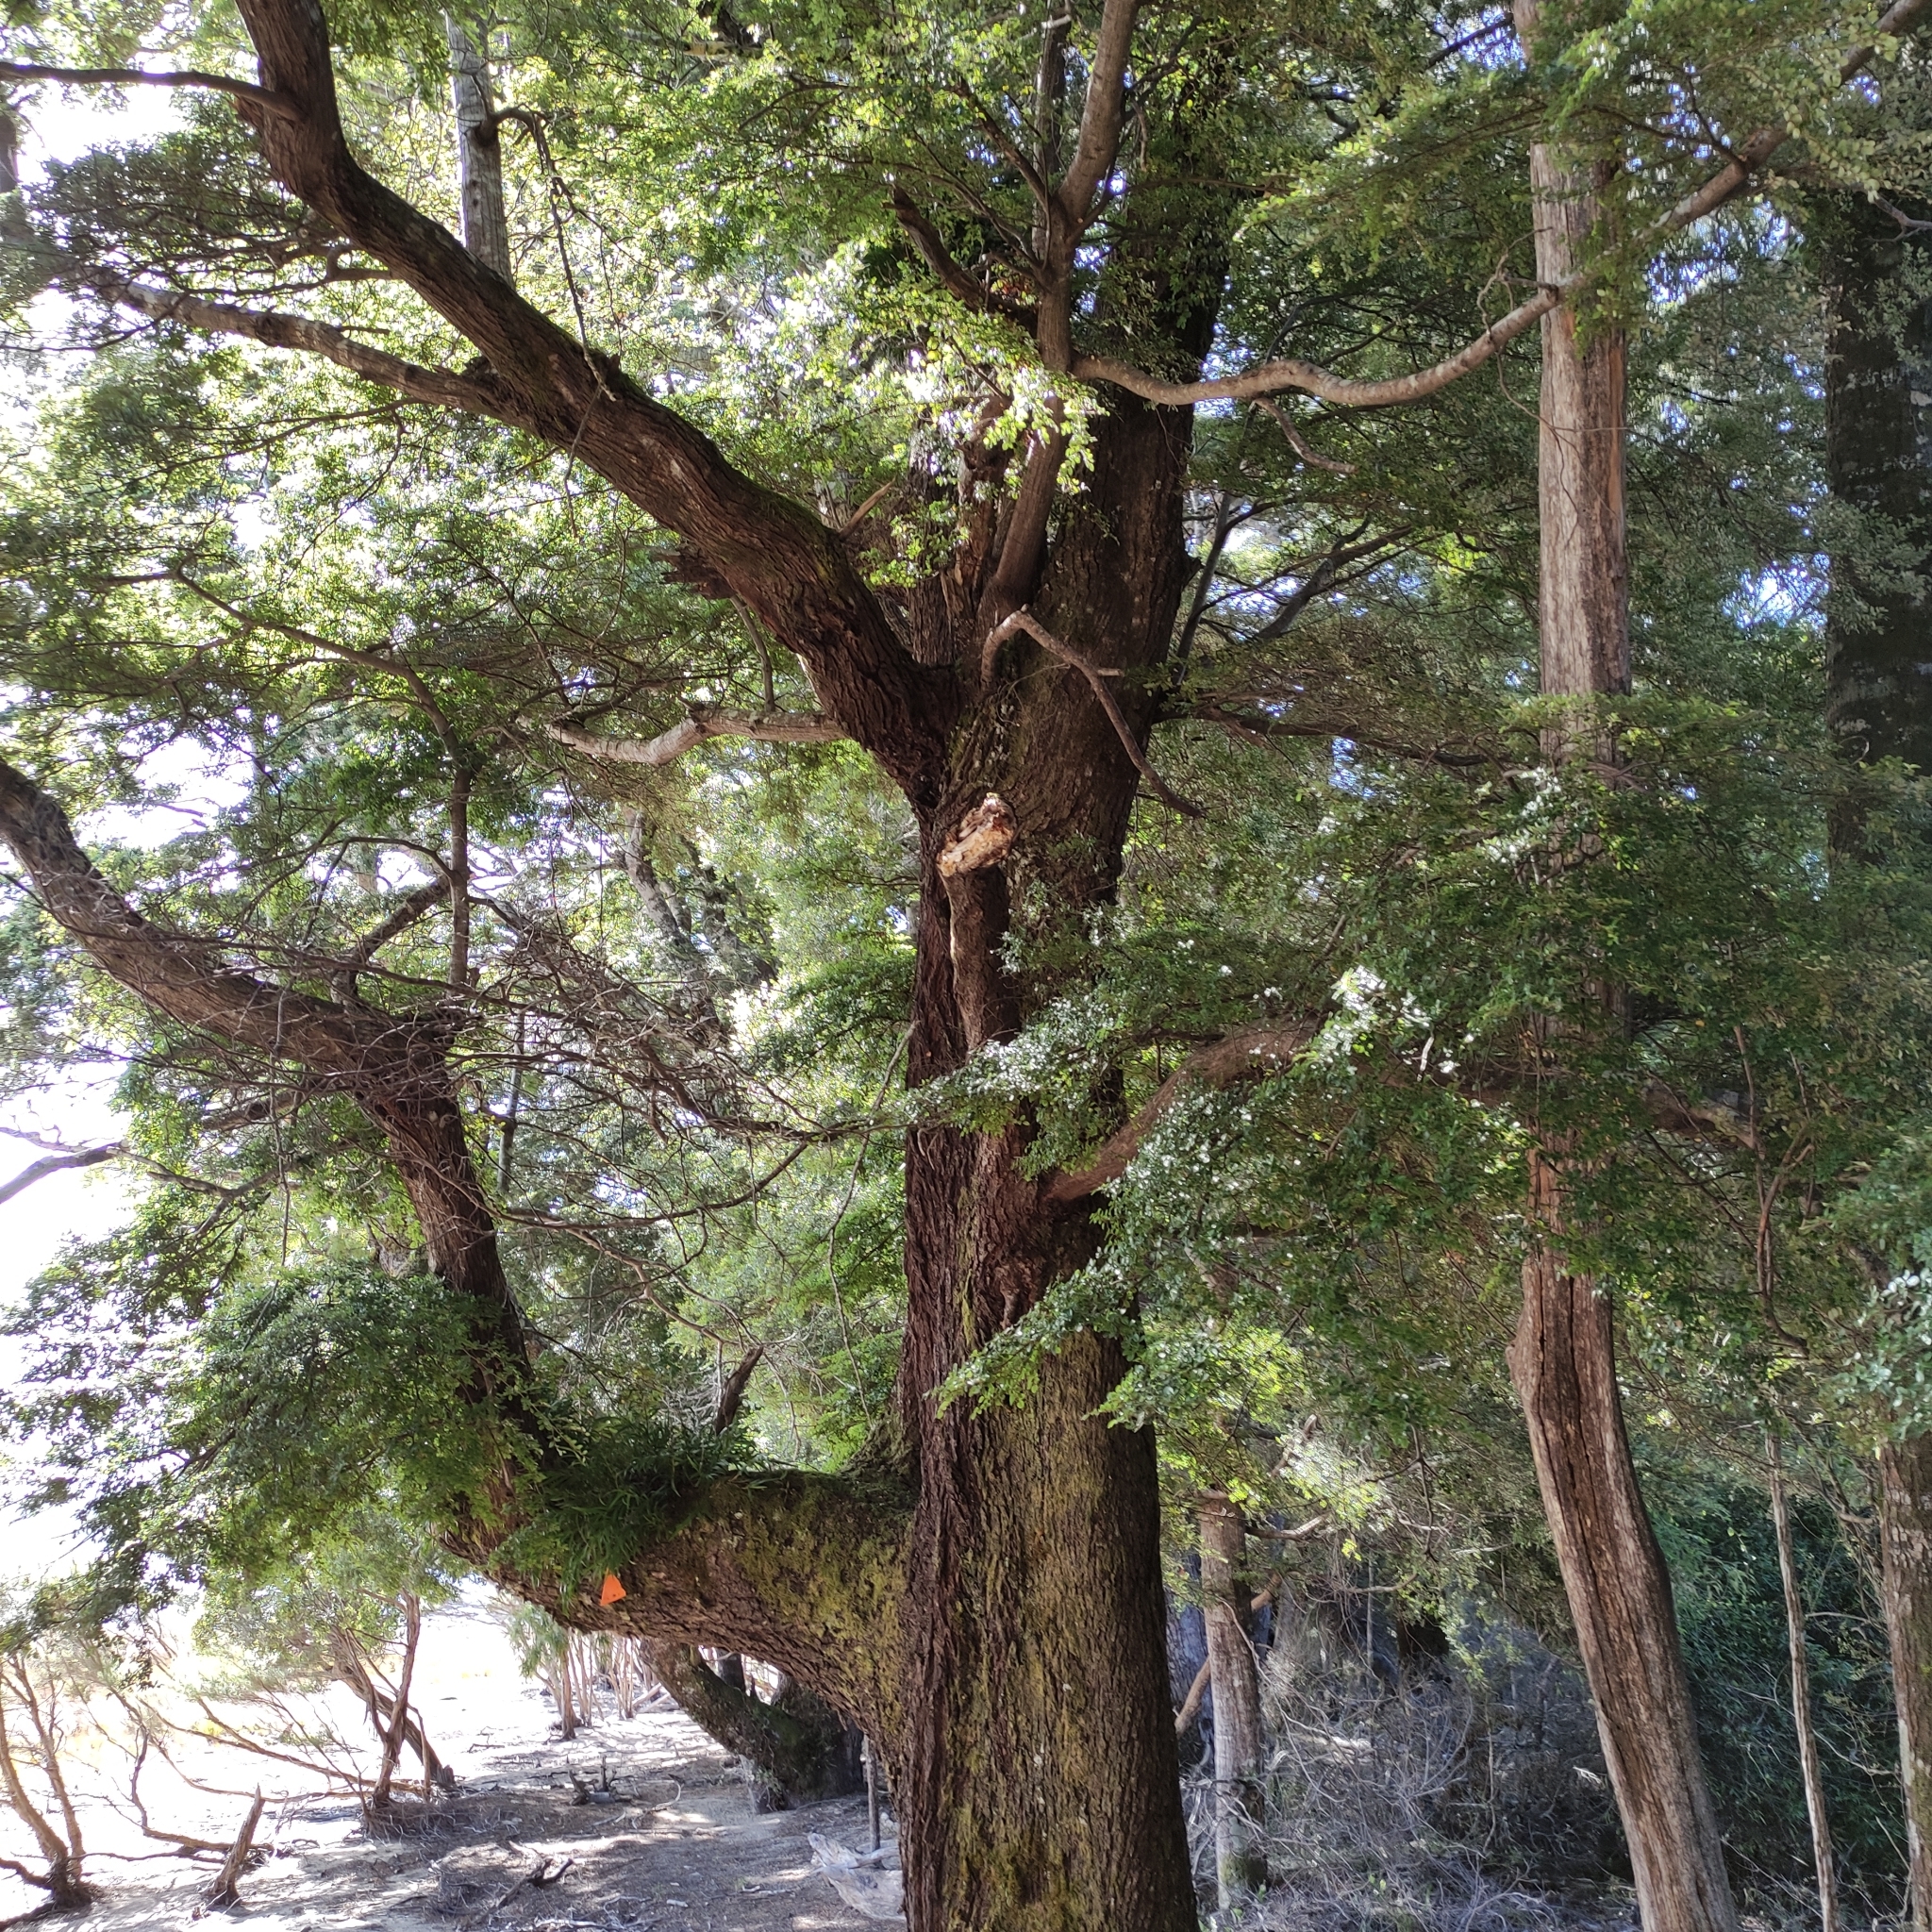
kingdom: Plantae
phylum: Tracheophyta
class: Magnoliopsida
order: Fagales
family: Nothofagaceae
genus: Nothofagus
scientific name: Nothofagus solandri
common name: Black beech
